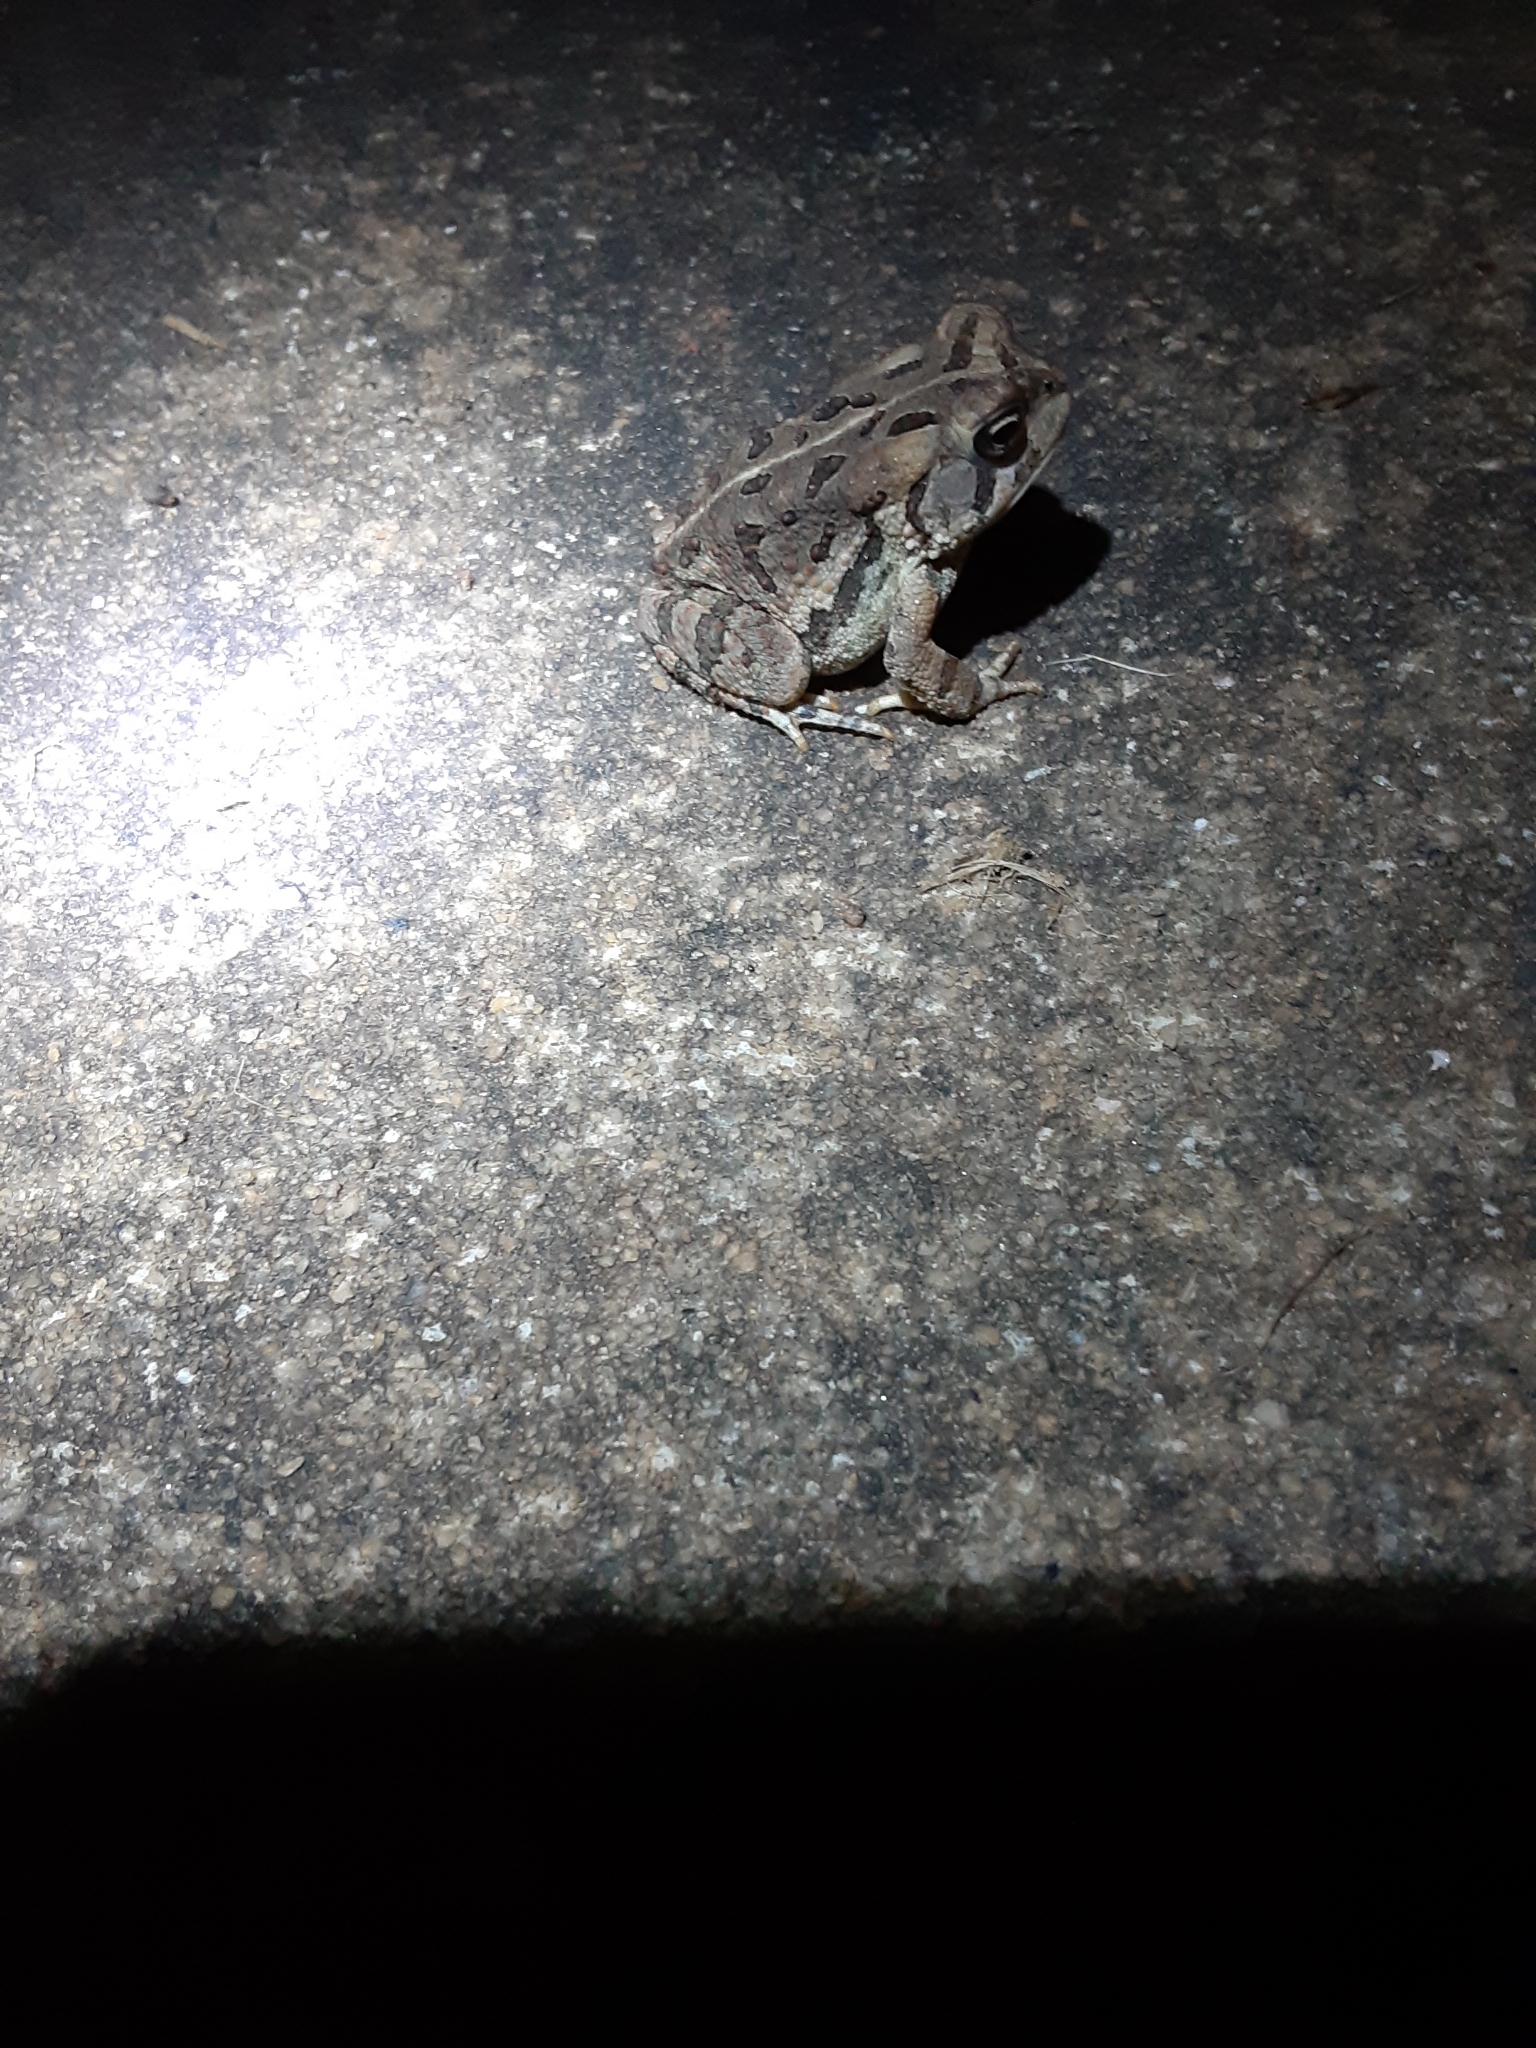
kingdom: Animalia
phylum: Chordata
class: Amphibia
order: Anura
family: Bufonidae
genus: Anaxyrus
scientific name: Anaxyrus fowleri
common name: Fowler's toad
